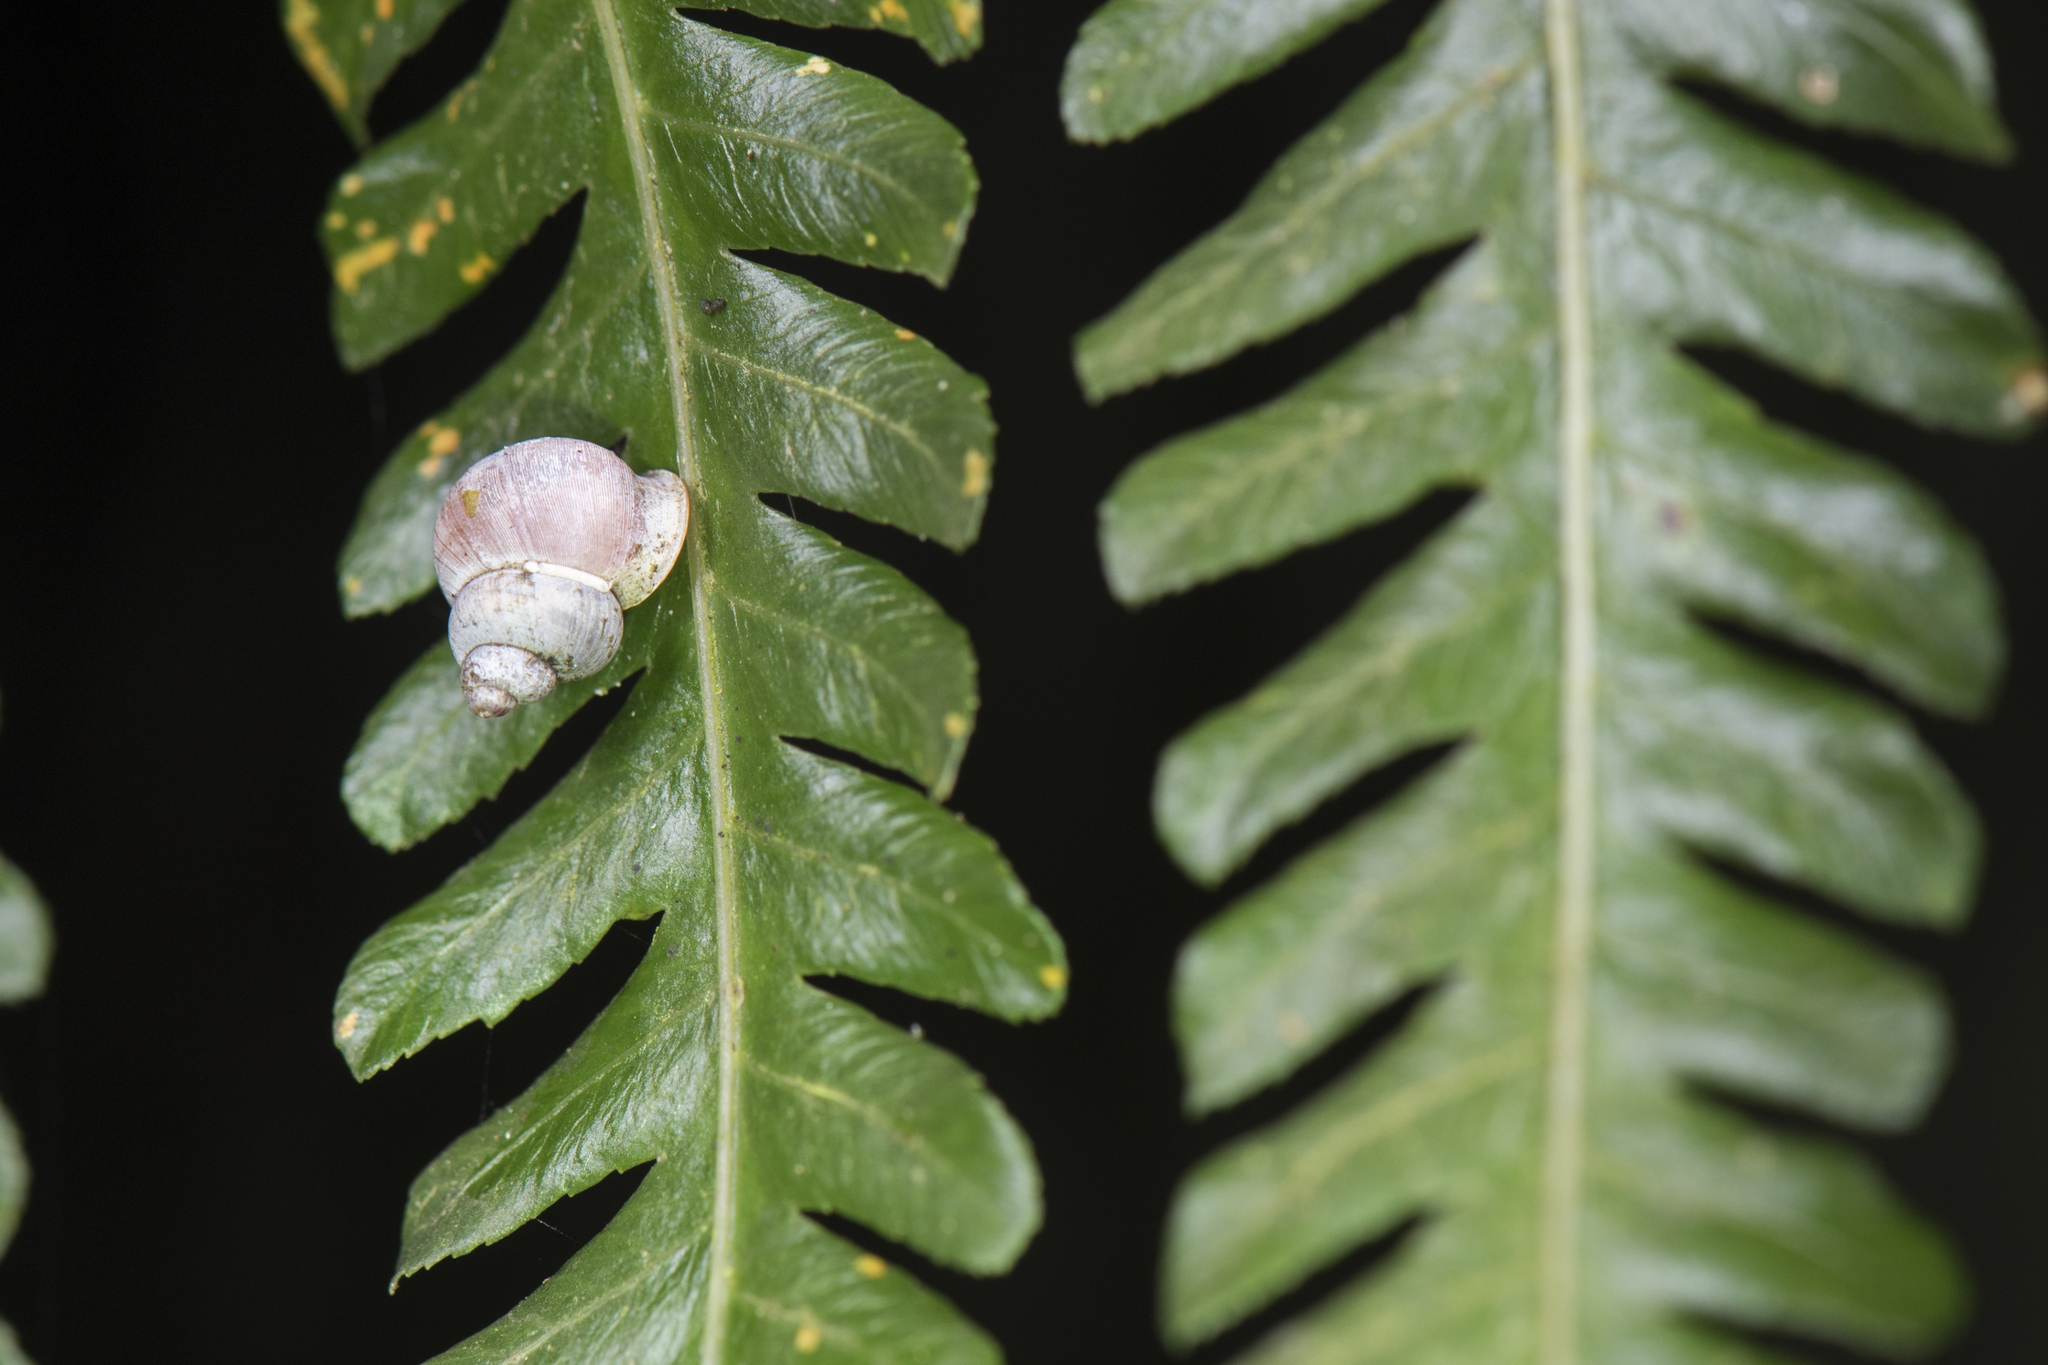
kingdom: Animalia
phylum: Mollusca
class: Gastropoda
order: Architaenioglossa
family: Alycaeidae
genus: Dioryx
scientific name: Dioryx swinhoei
